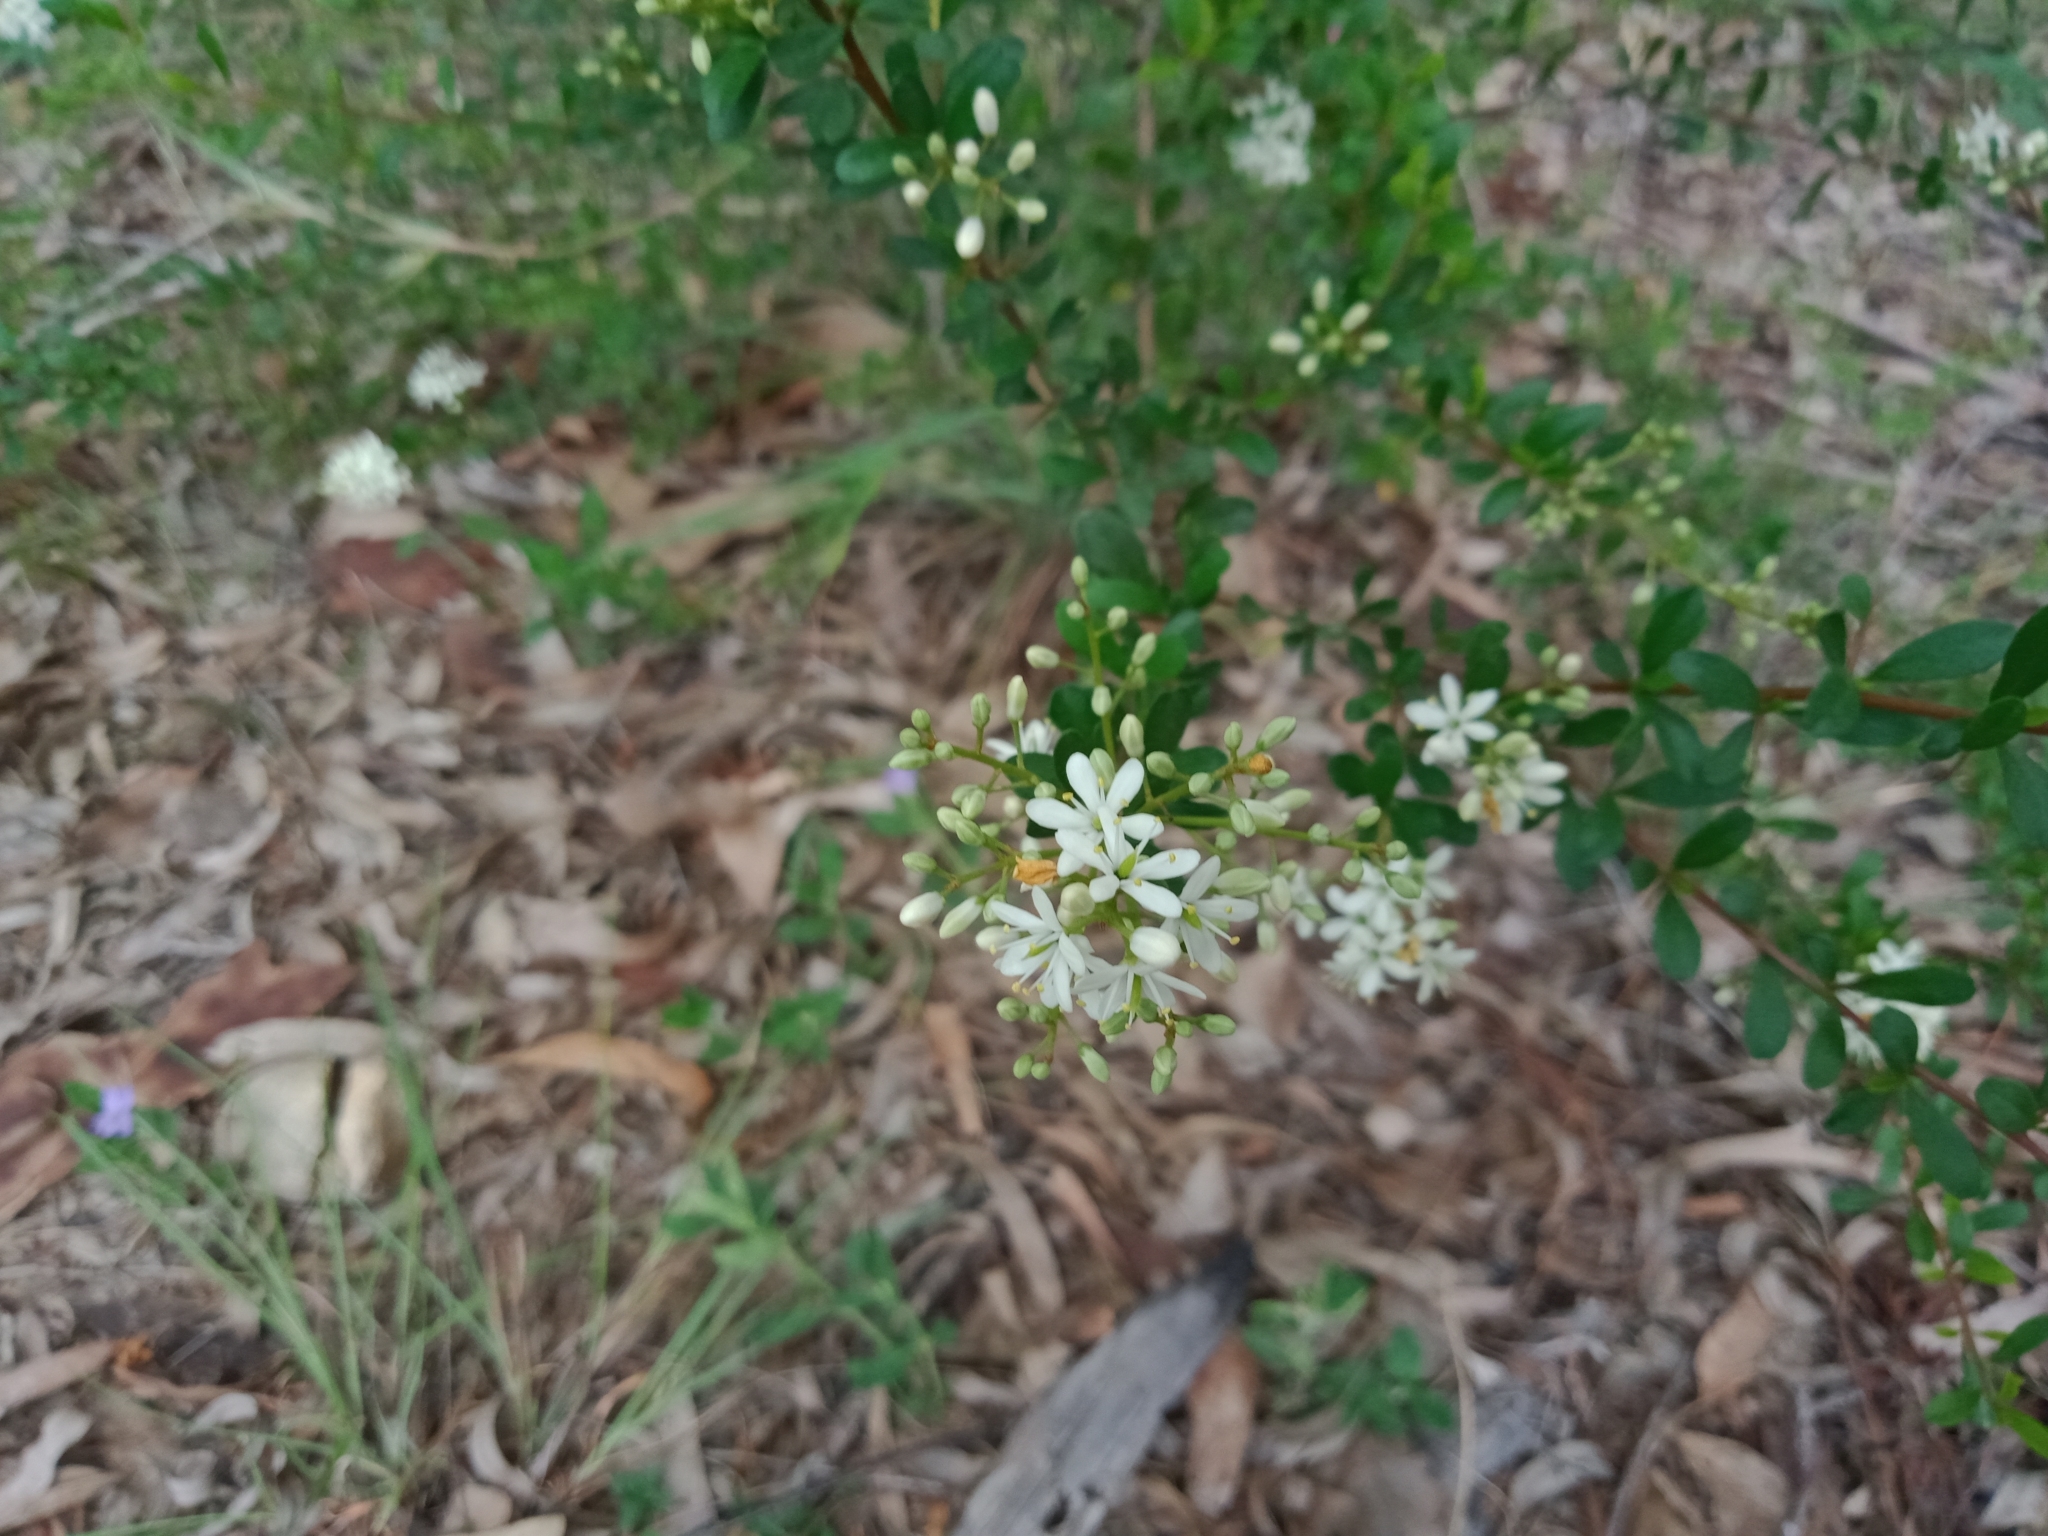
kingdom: Plantae
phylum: Tracheophyta
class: Magnoliopsida
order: Apiales
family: Pittosporaceae
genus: Bursaria
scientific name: Bursaria spinosa
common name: Australian blackthorn
